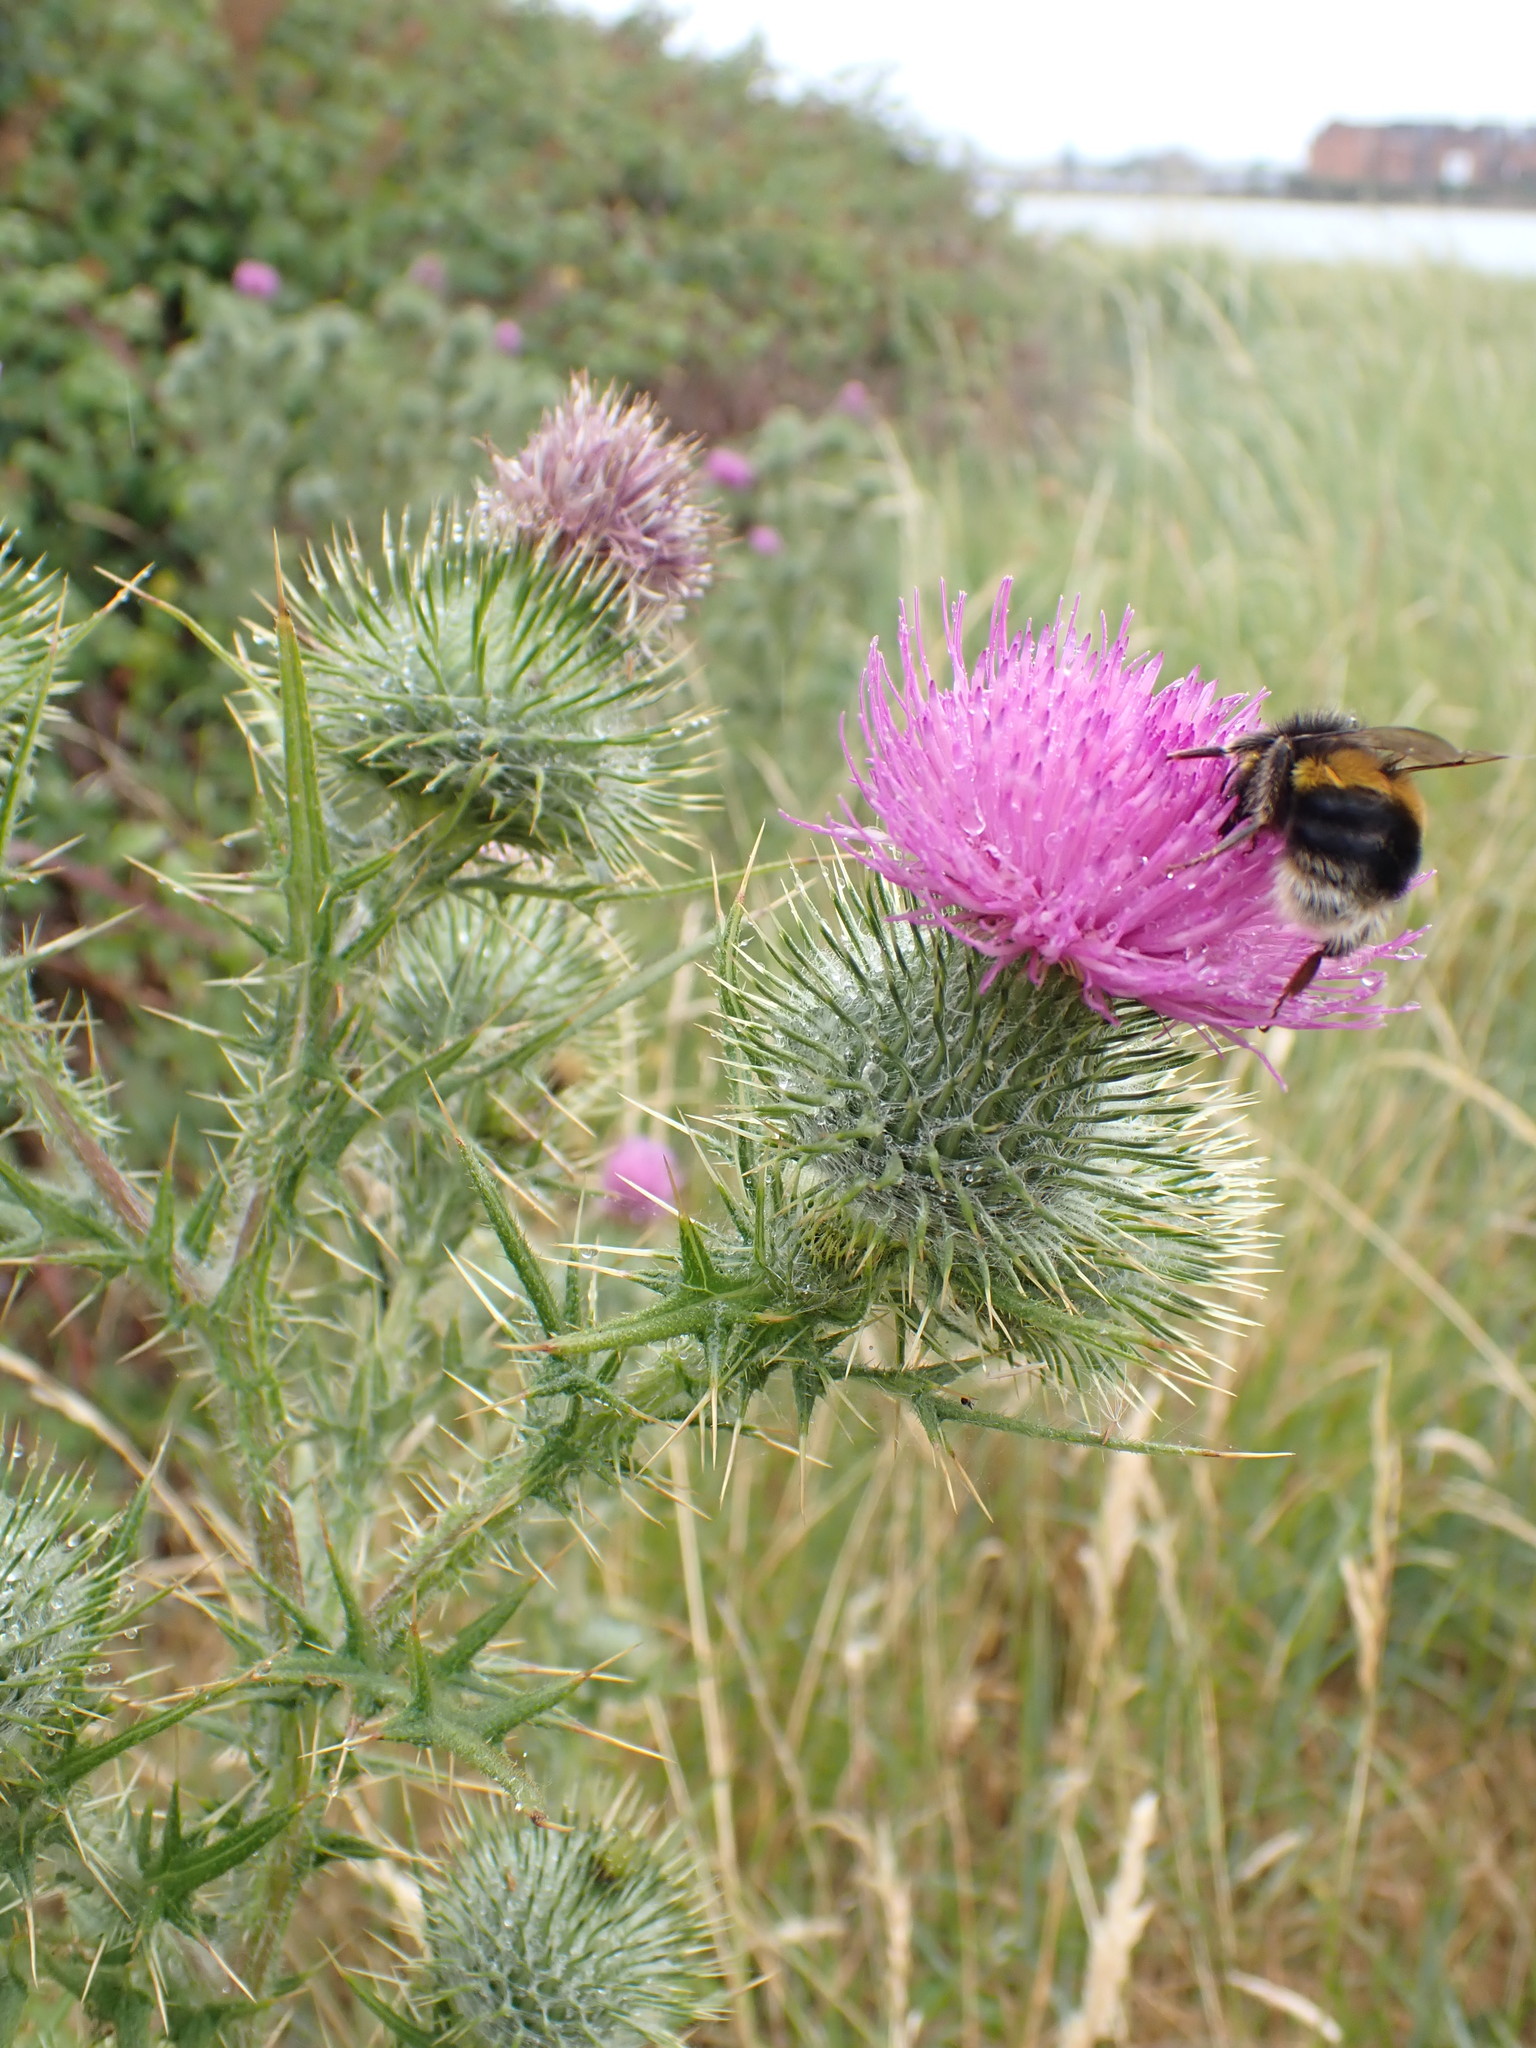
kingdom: Plantae
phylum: Tracheophyta
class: Magnoliopsida
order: Asterales
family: Asteraceae
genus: Cirsium
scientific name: Cirsium vulgare
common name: Bull thistle
